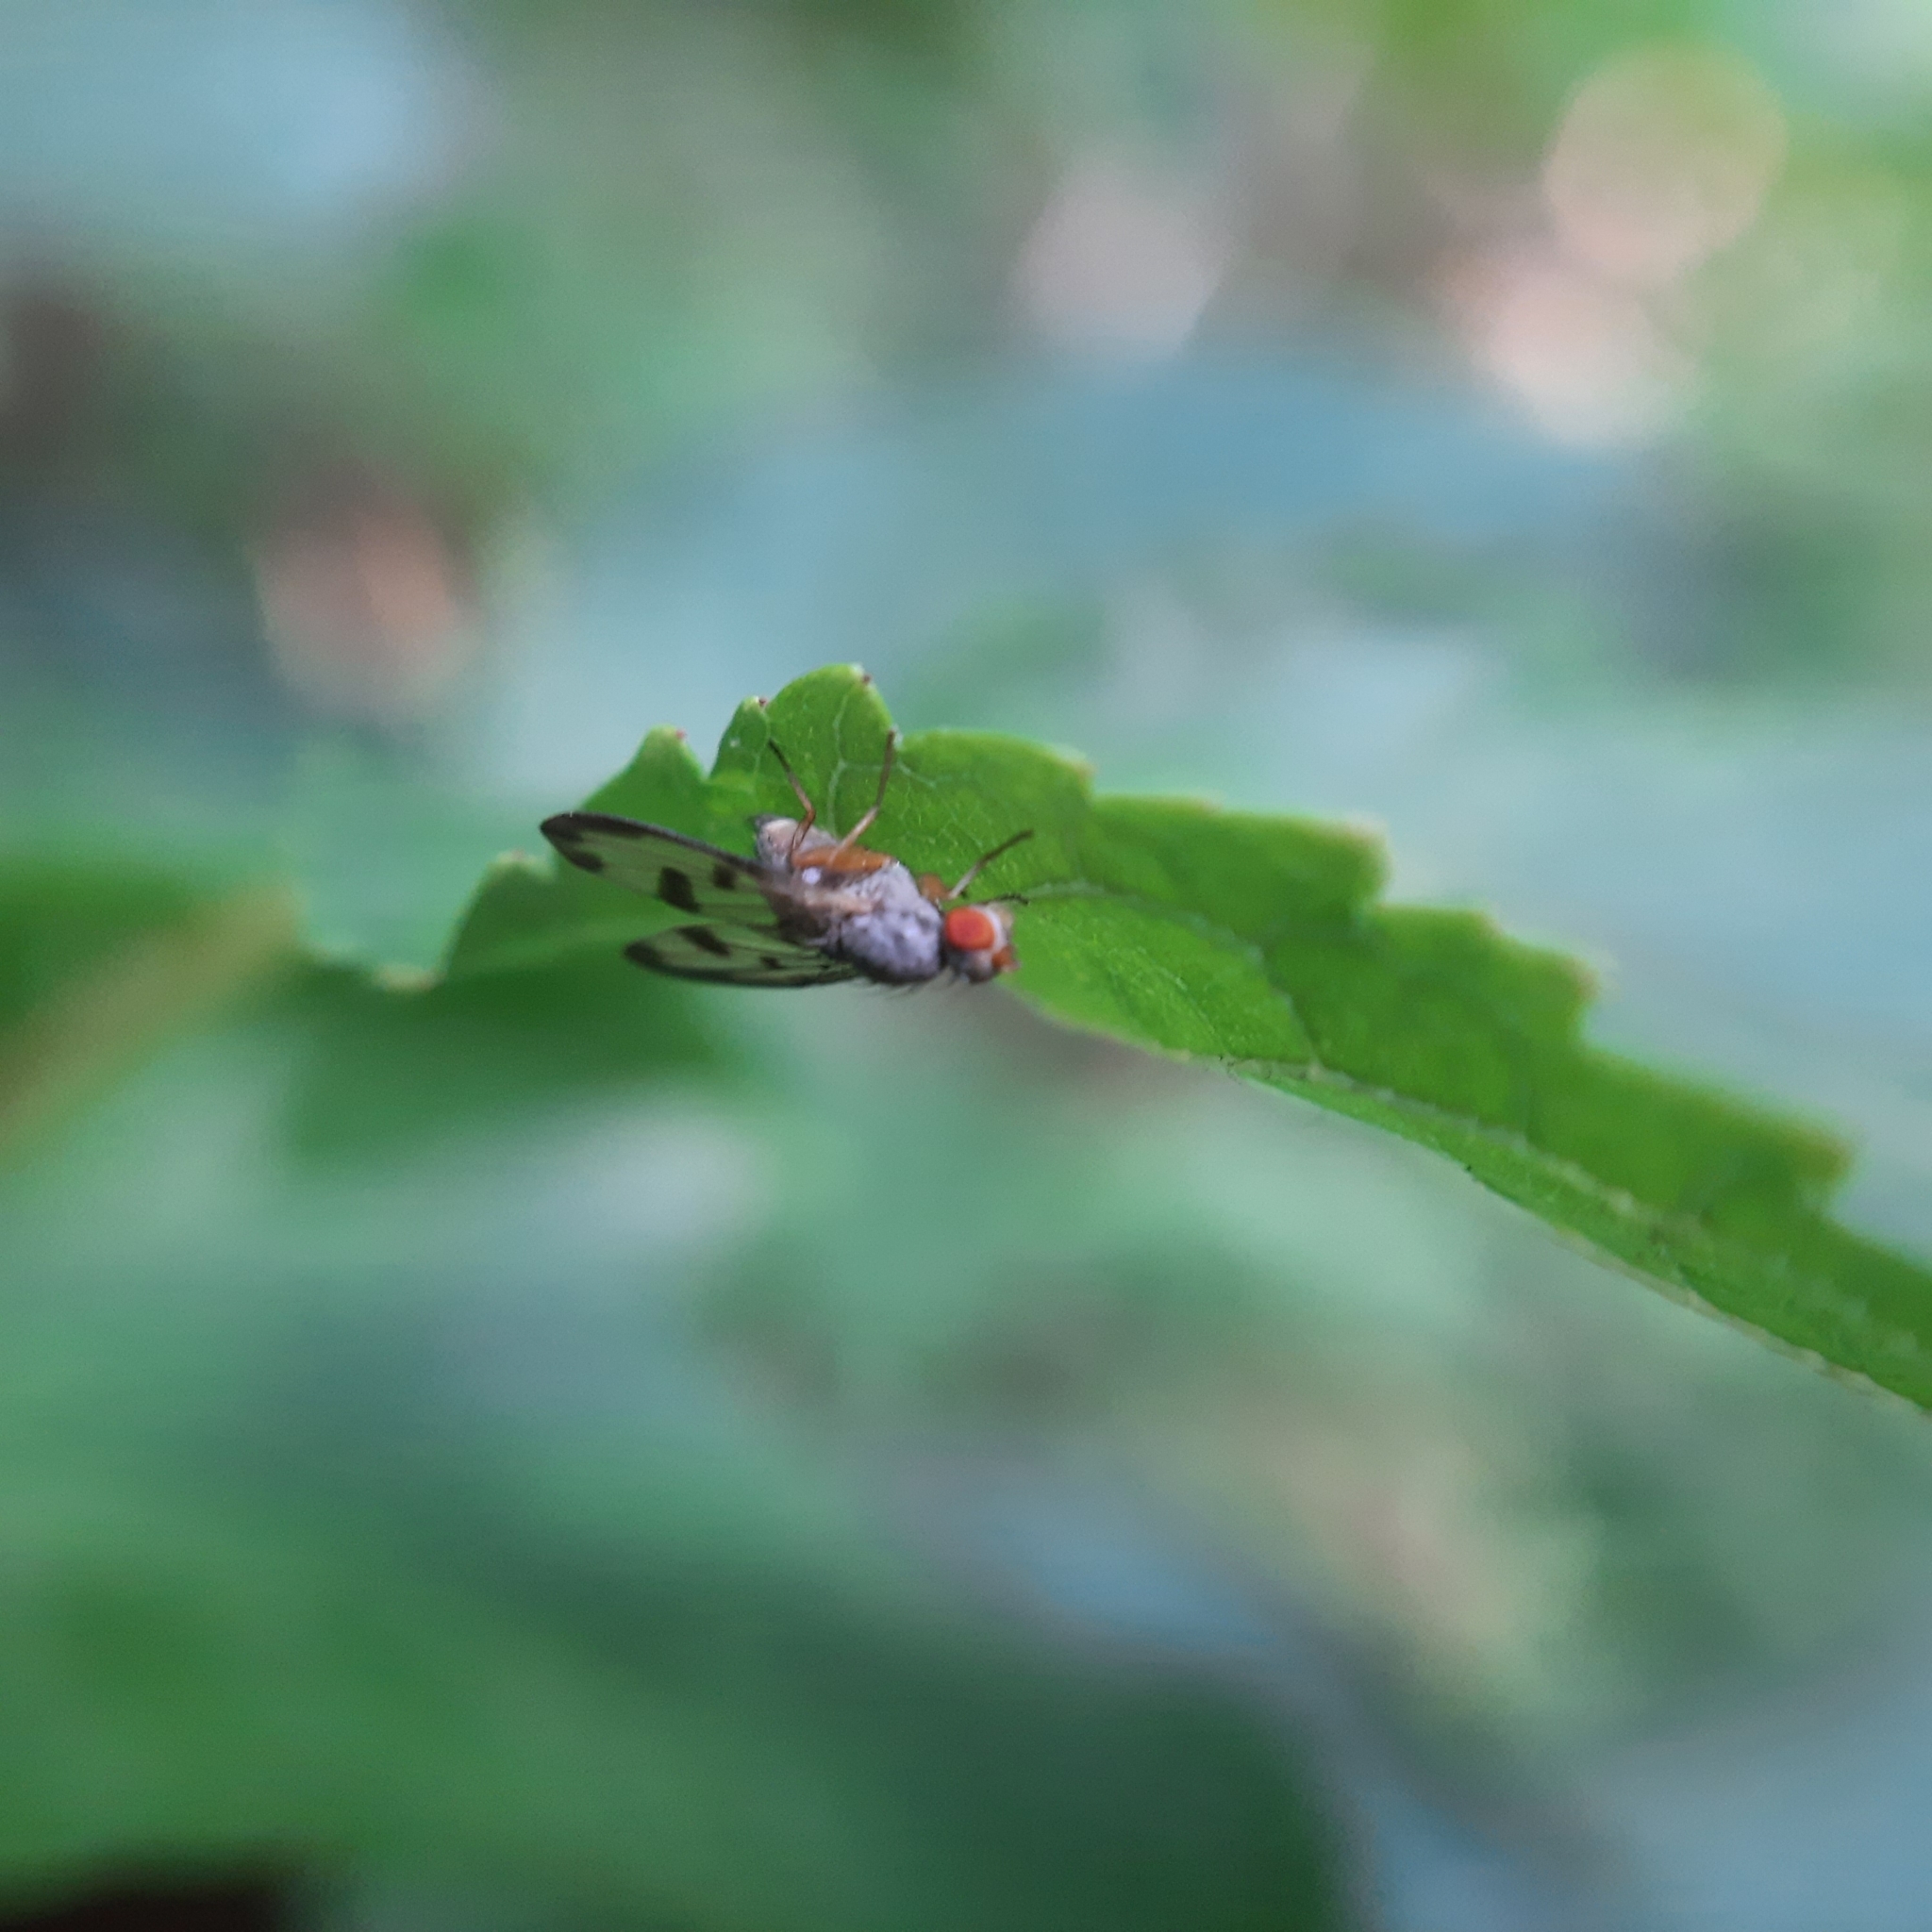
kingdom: Animalia
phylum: Arthropoda
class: Insecta
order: Diptera
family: Pallopteridae
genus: Palloptera
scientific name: Palloptera umbellatarum
